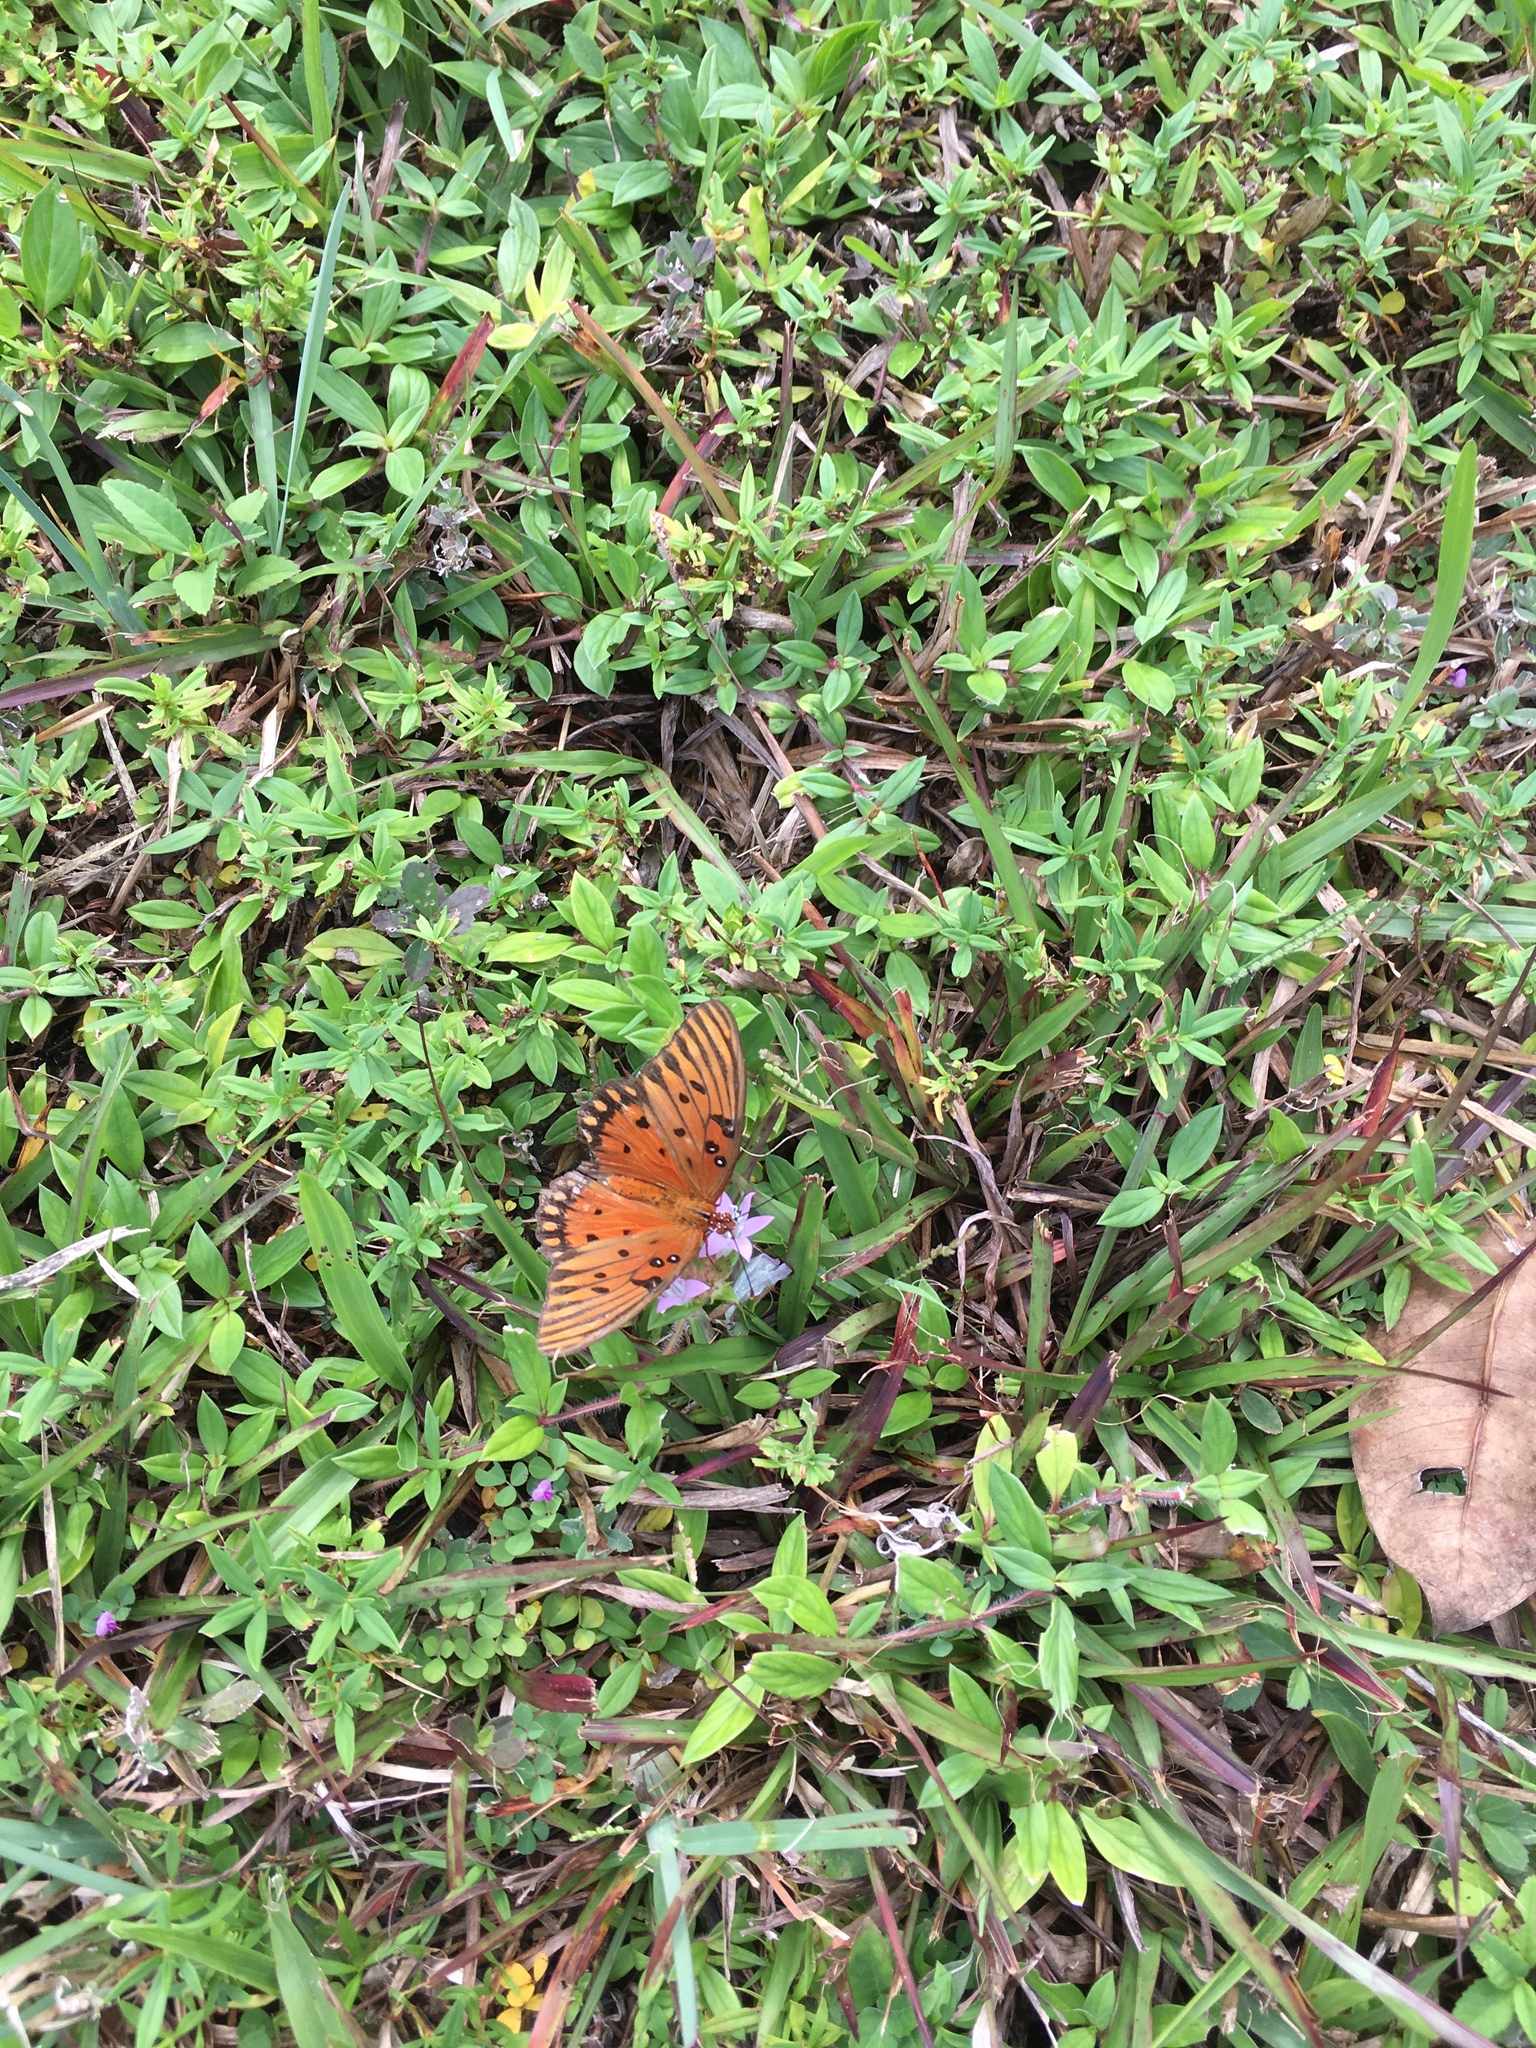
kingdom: Animalia
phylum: Arthropoda
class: Insecta
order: Lepidoptera
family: Nymphalidae
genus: Dione
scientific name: Dione vanillae
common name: Gulf fritillary
